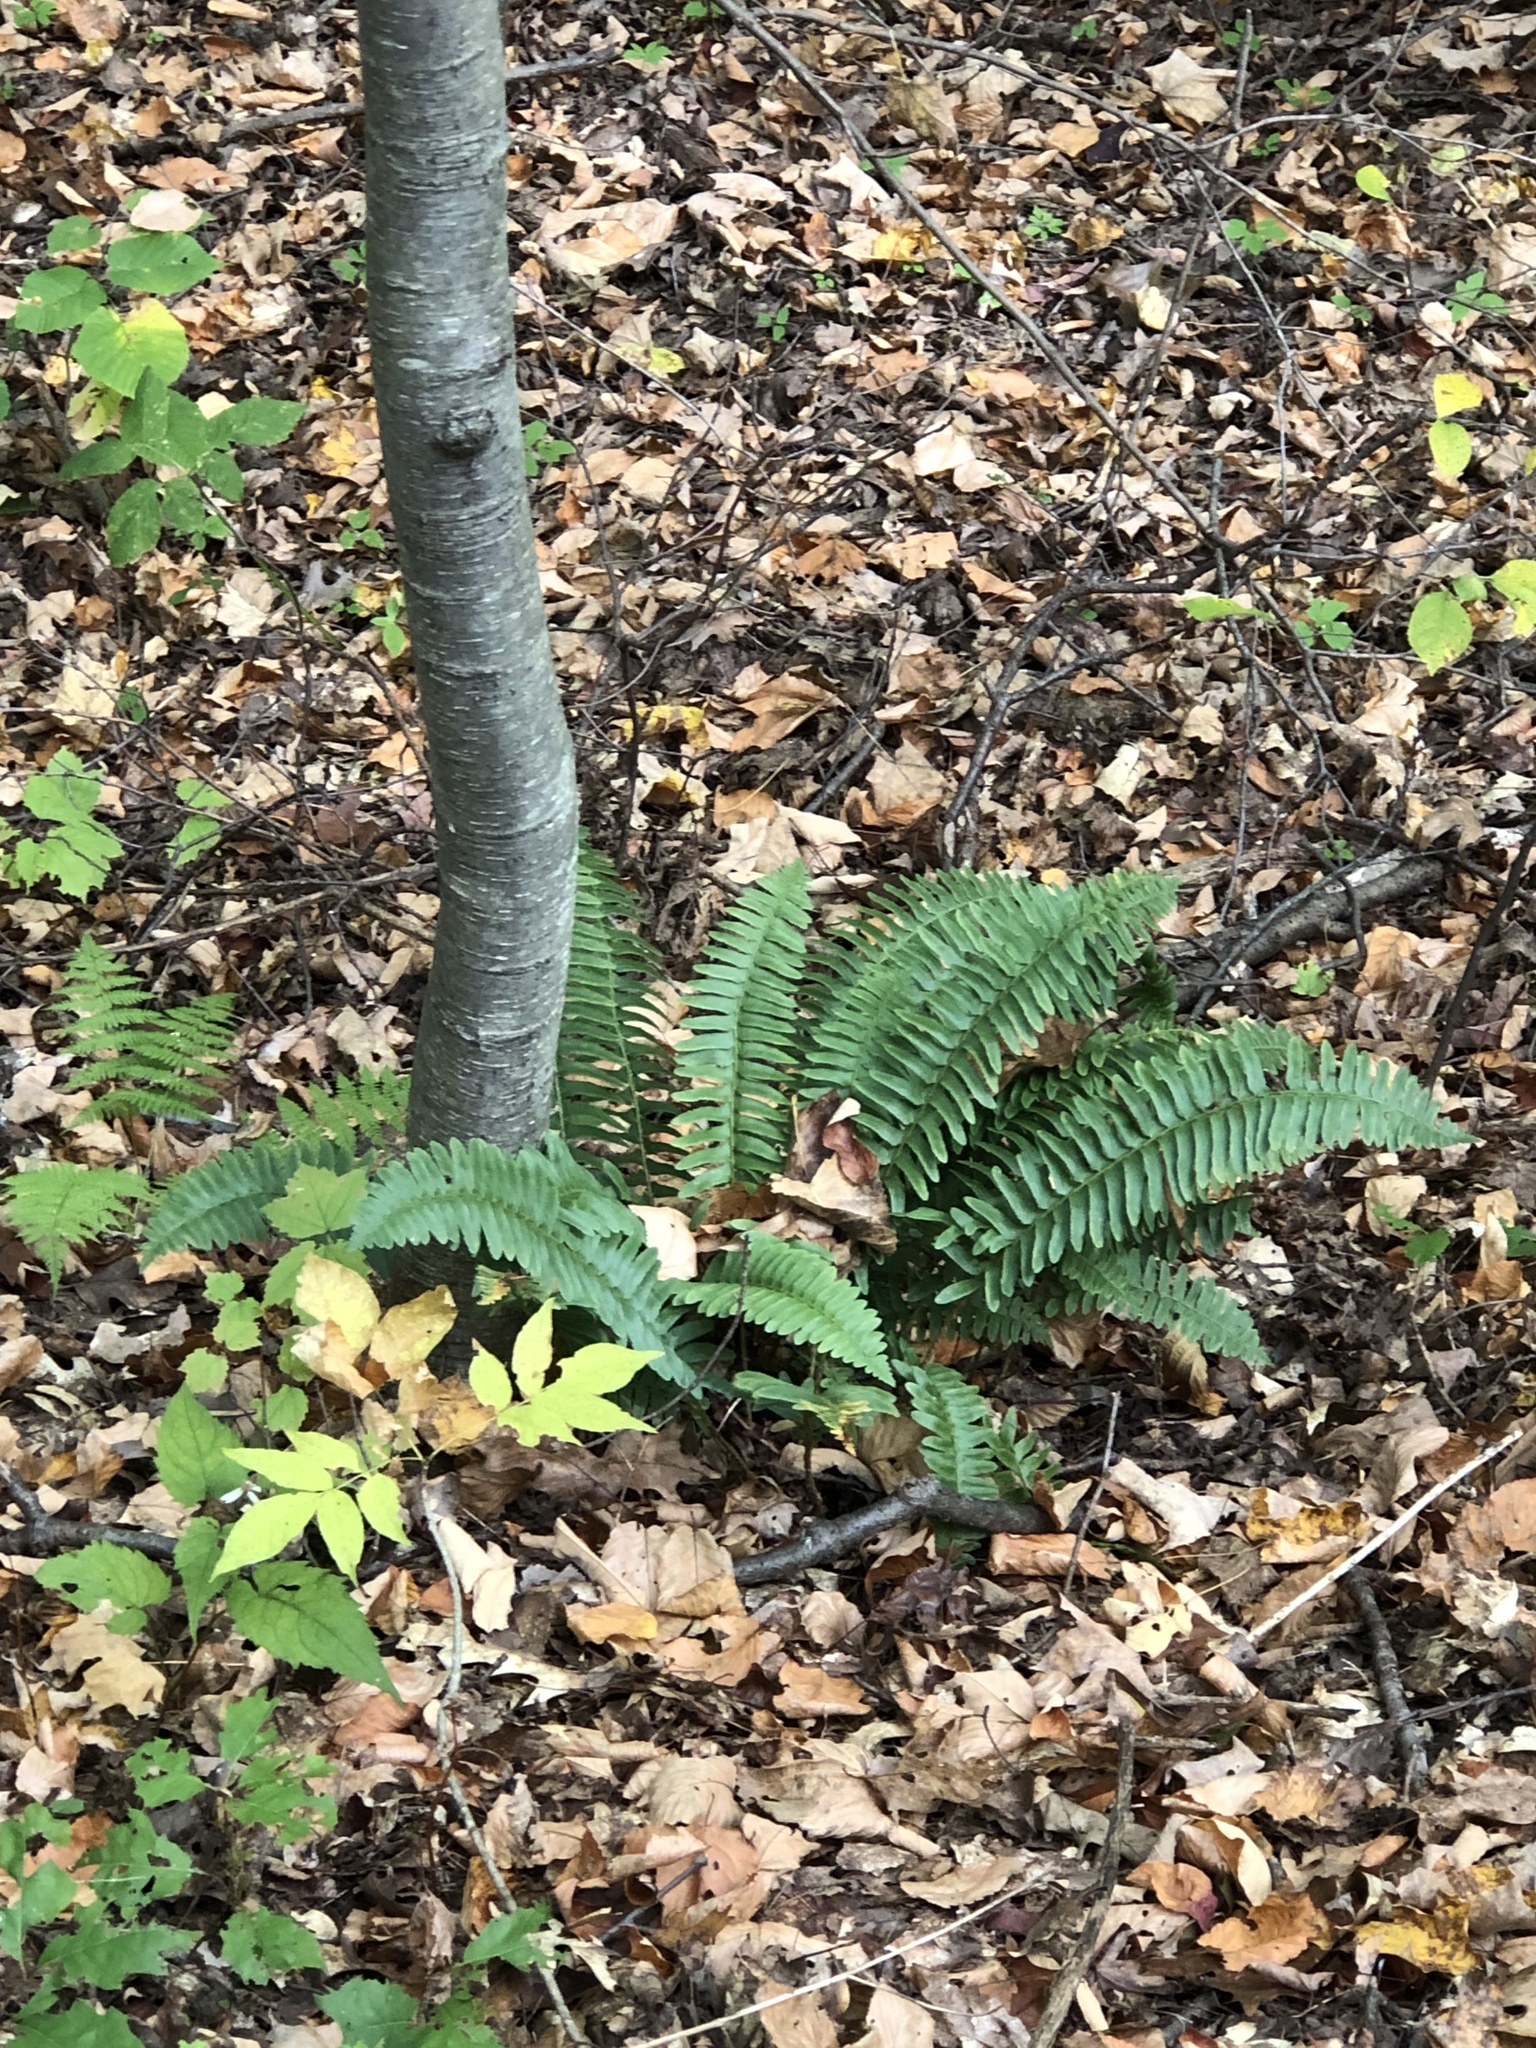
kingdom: Plantae
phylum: Tracheophyta
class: Polypodiopsida
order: Polypodiales
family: Dryopteridaceae
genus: Polystichum
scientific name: Polystichum acrostichoides
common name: Christmas fern
